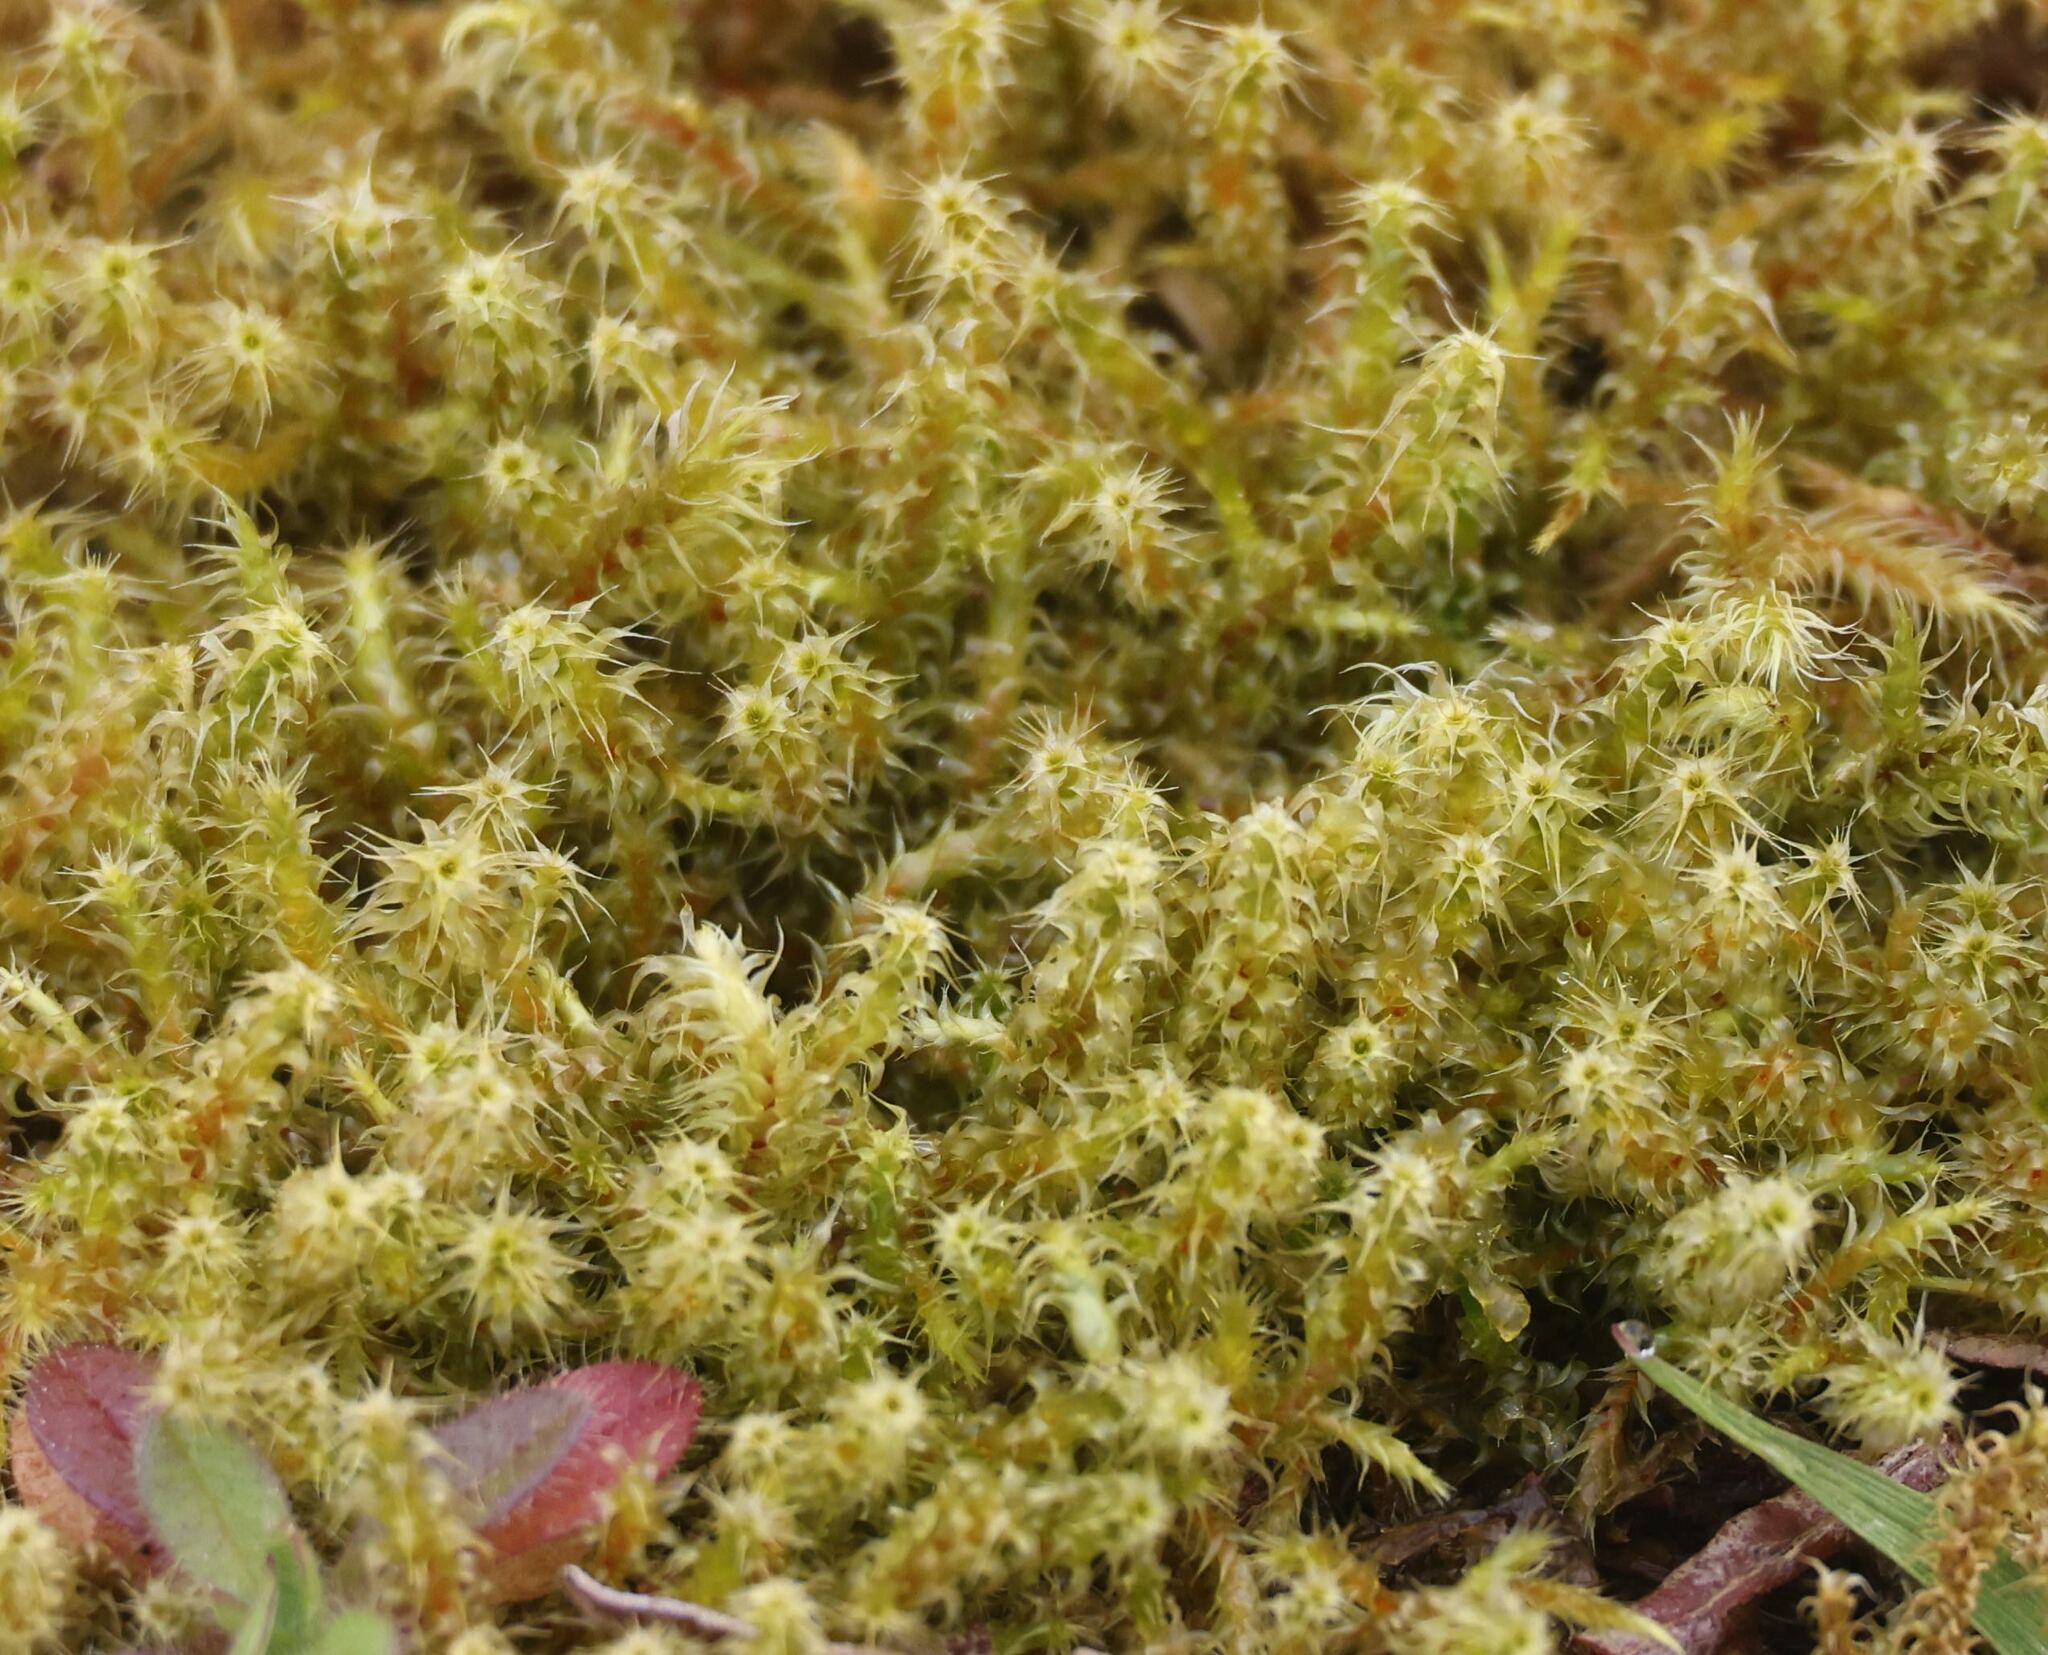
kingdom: Plantae
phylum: Bryophyta
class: Bryopsida
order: Hypnales
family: Hylocomiaceae
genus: Rhytidiadelphus
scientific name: Rhytidiadelphus squarrosus
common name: Springy turf-moss
